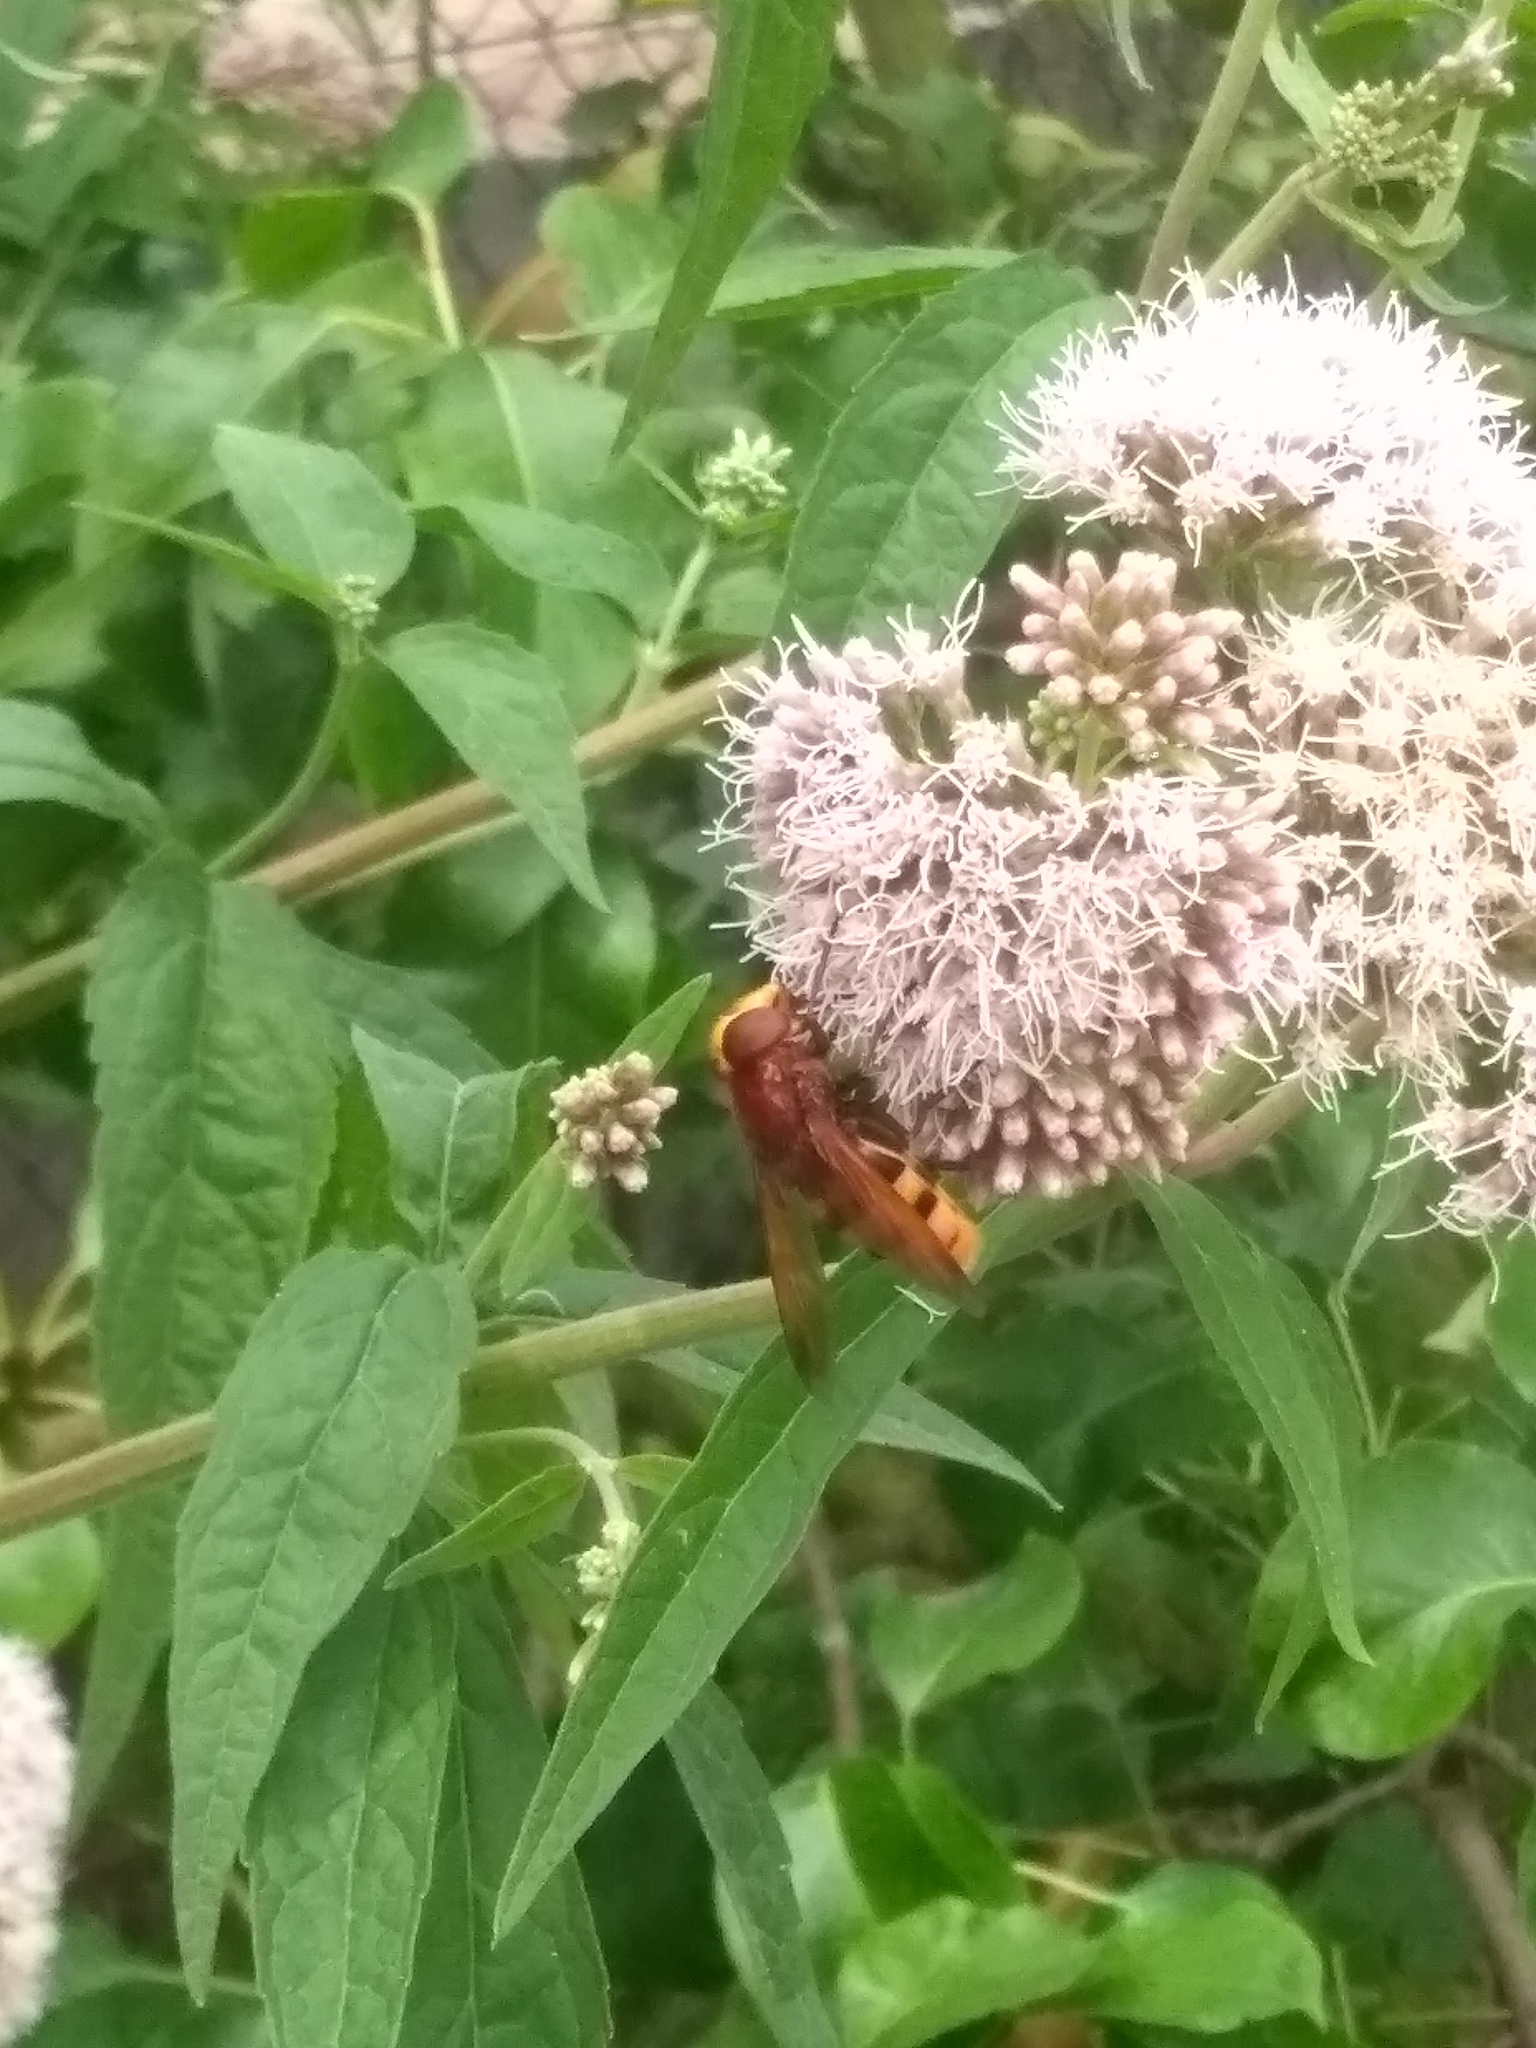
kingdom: Animalia
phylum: Arthropoda
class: Insecta
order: Diptera
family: Syrphidae
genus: Volucella
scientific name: Volucella zonaria
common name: Hornet hoverfly
